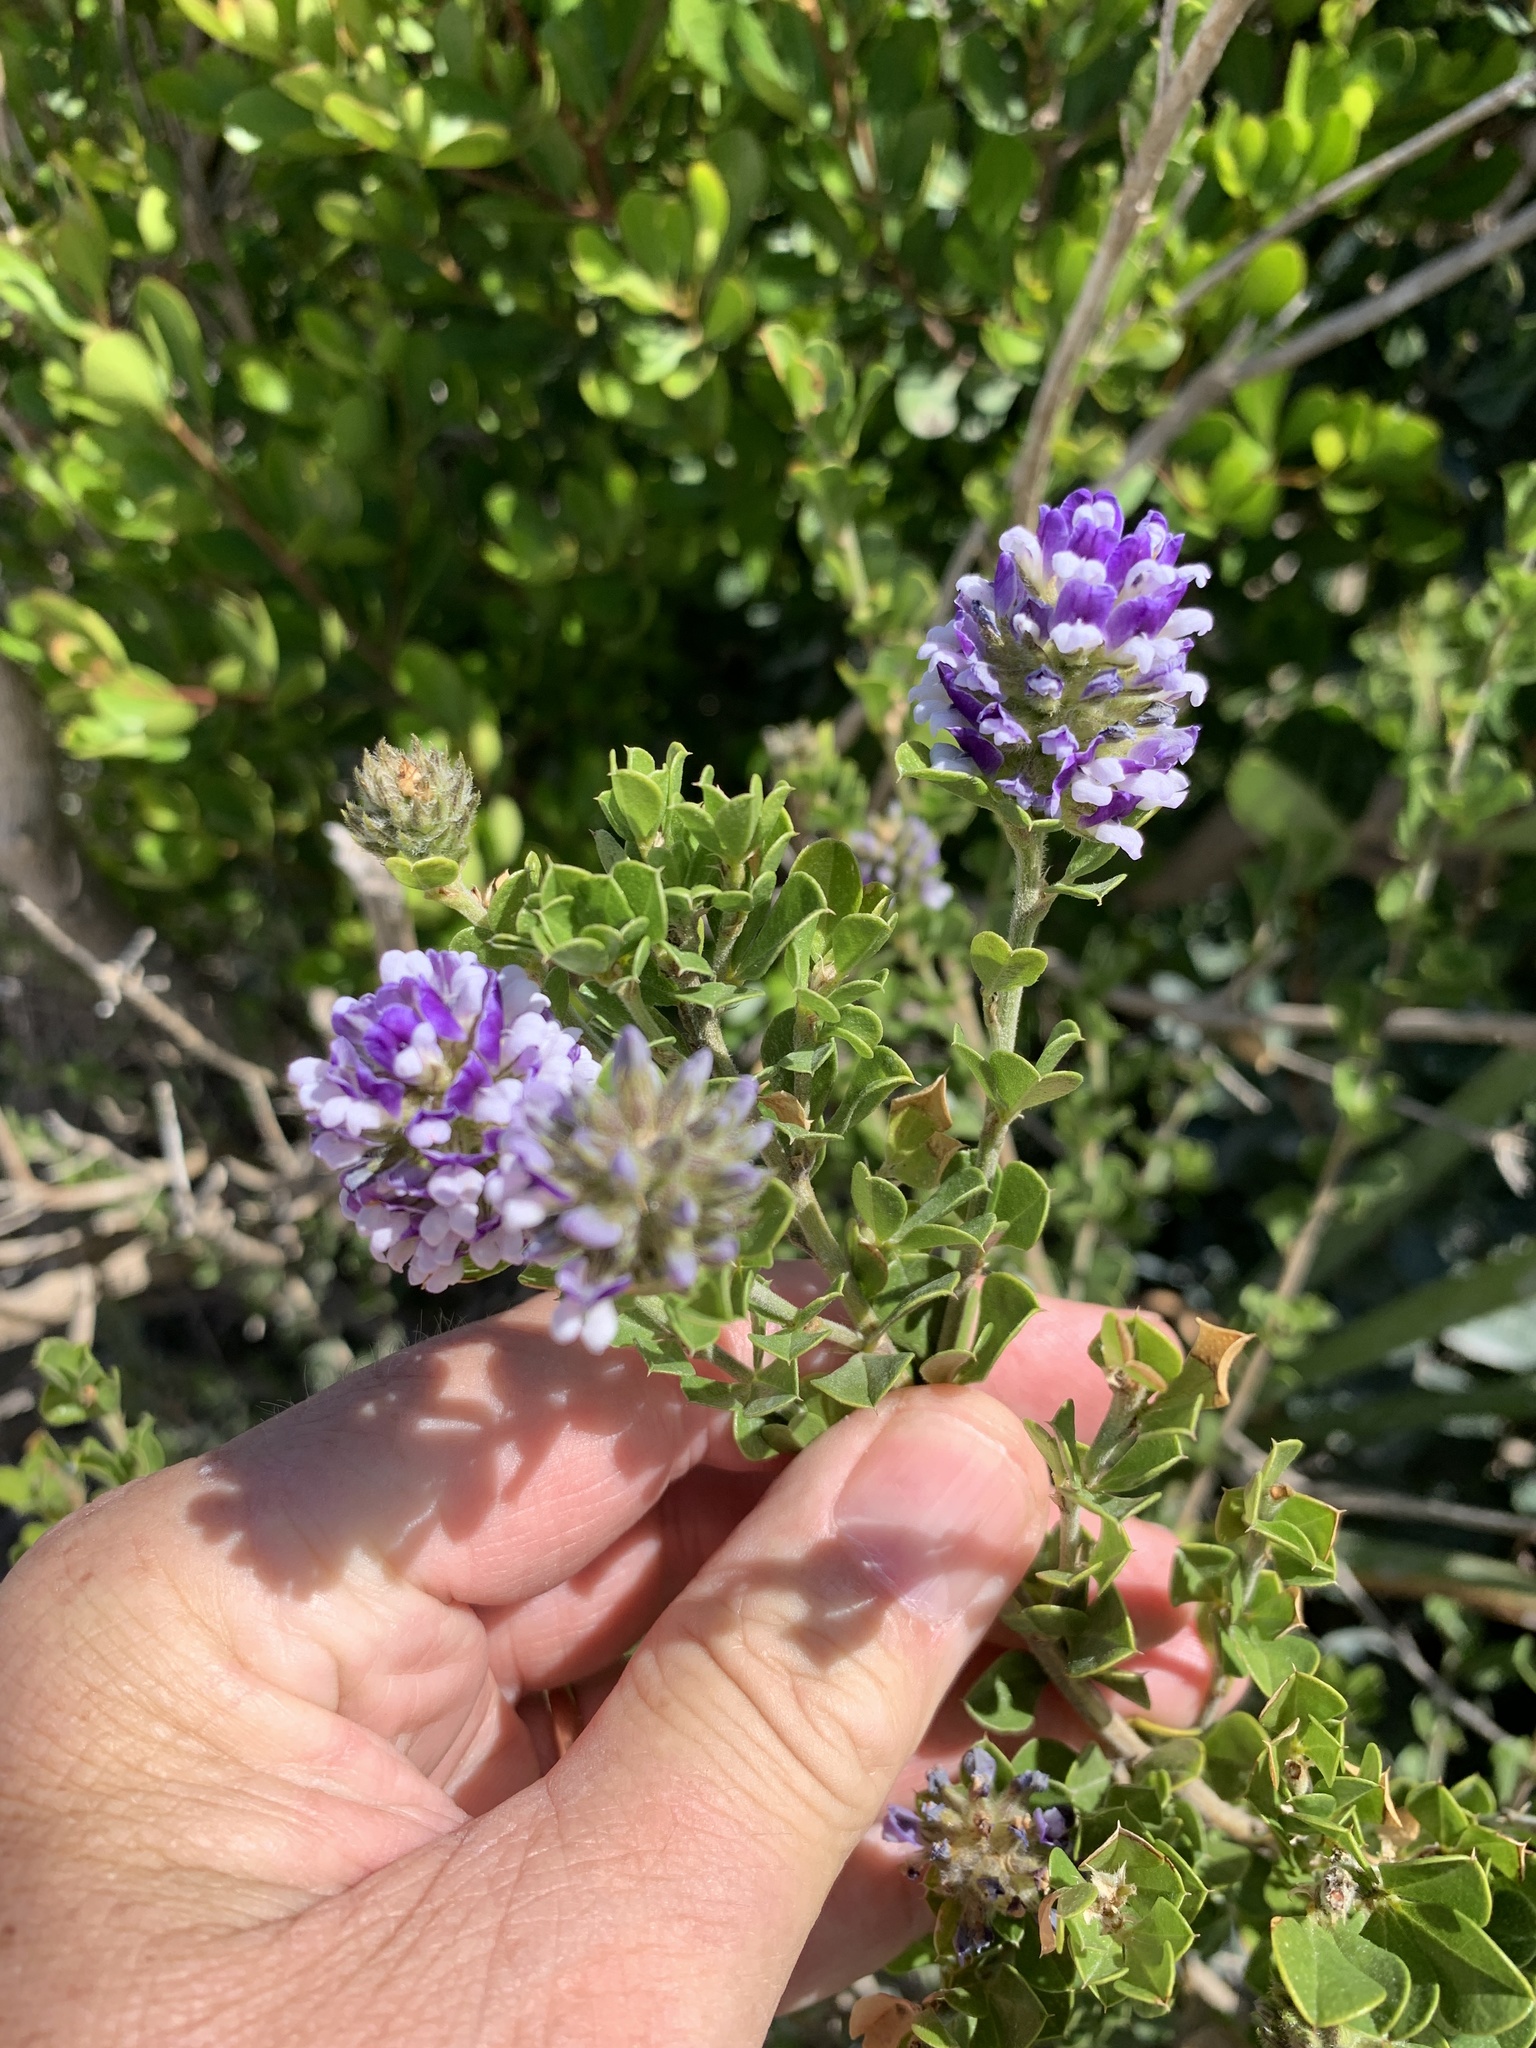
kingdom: Plantae
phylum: Tracheophyta
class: Magnoliopsida
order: Fabales
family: Fabaceae
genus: Psoralea
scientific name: Psoralea bracteolata
